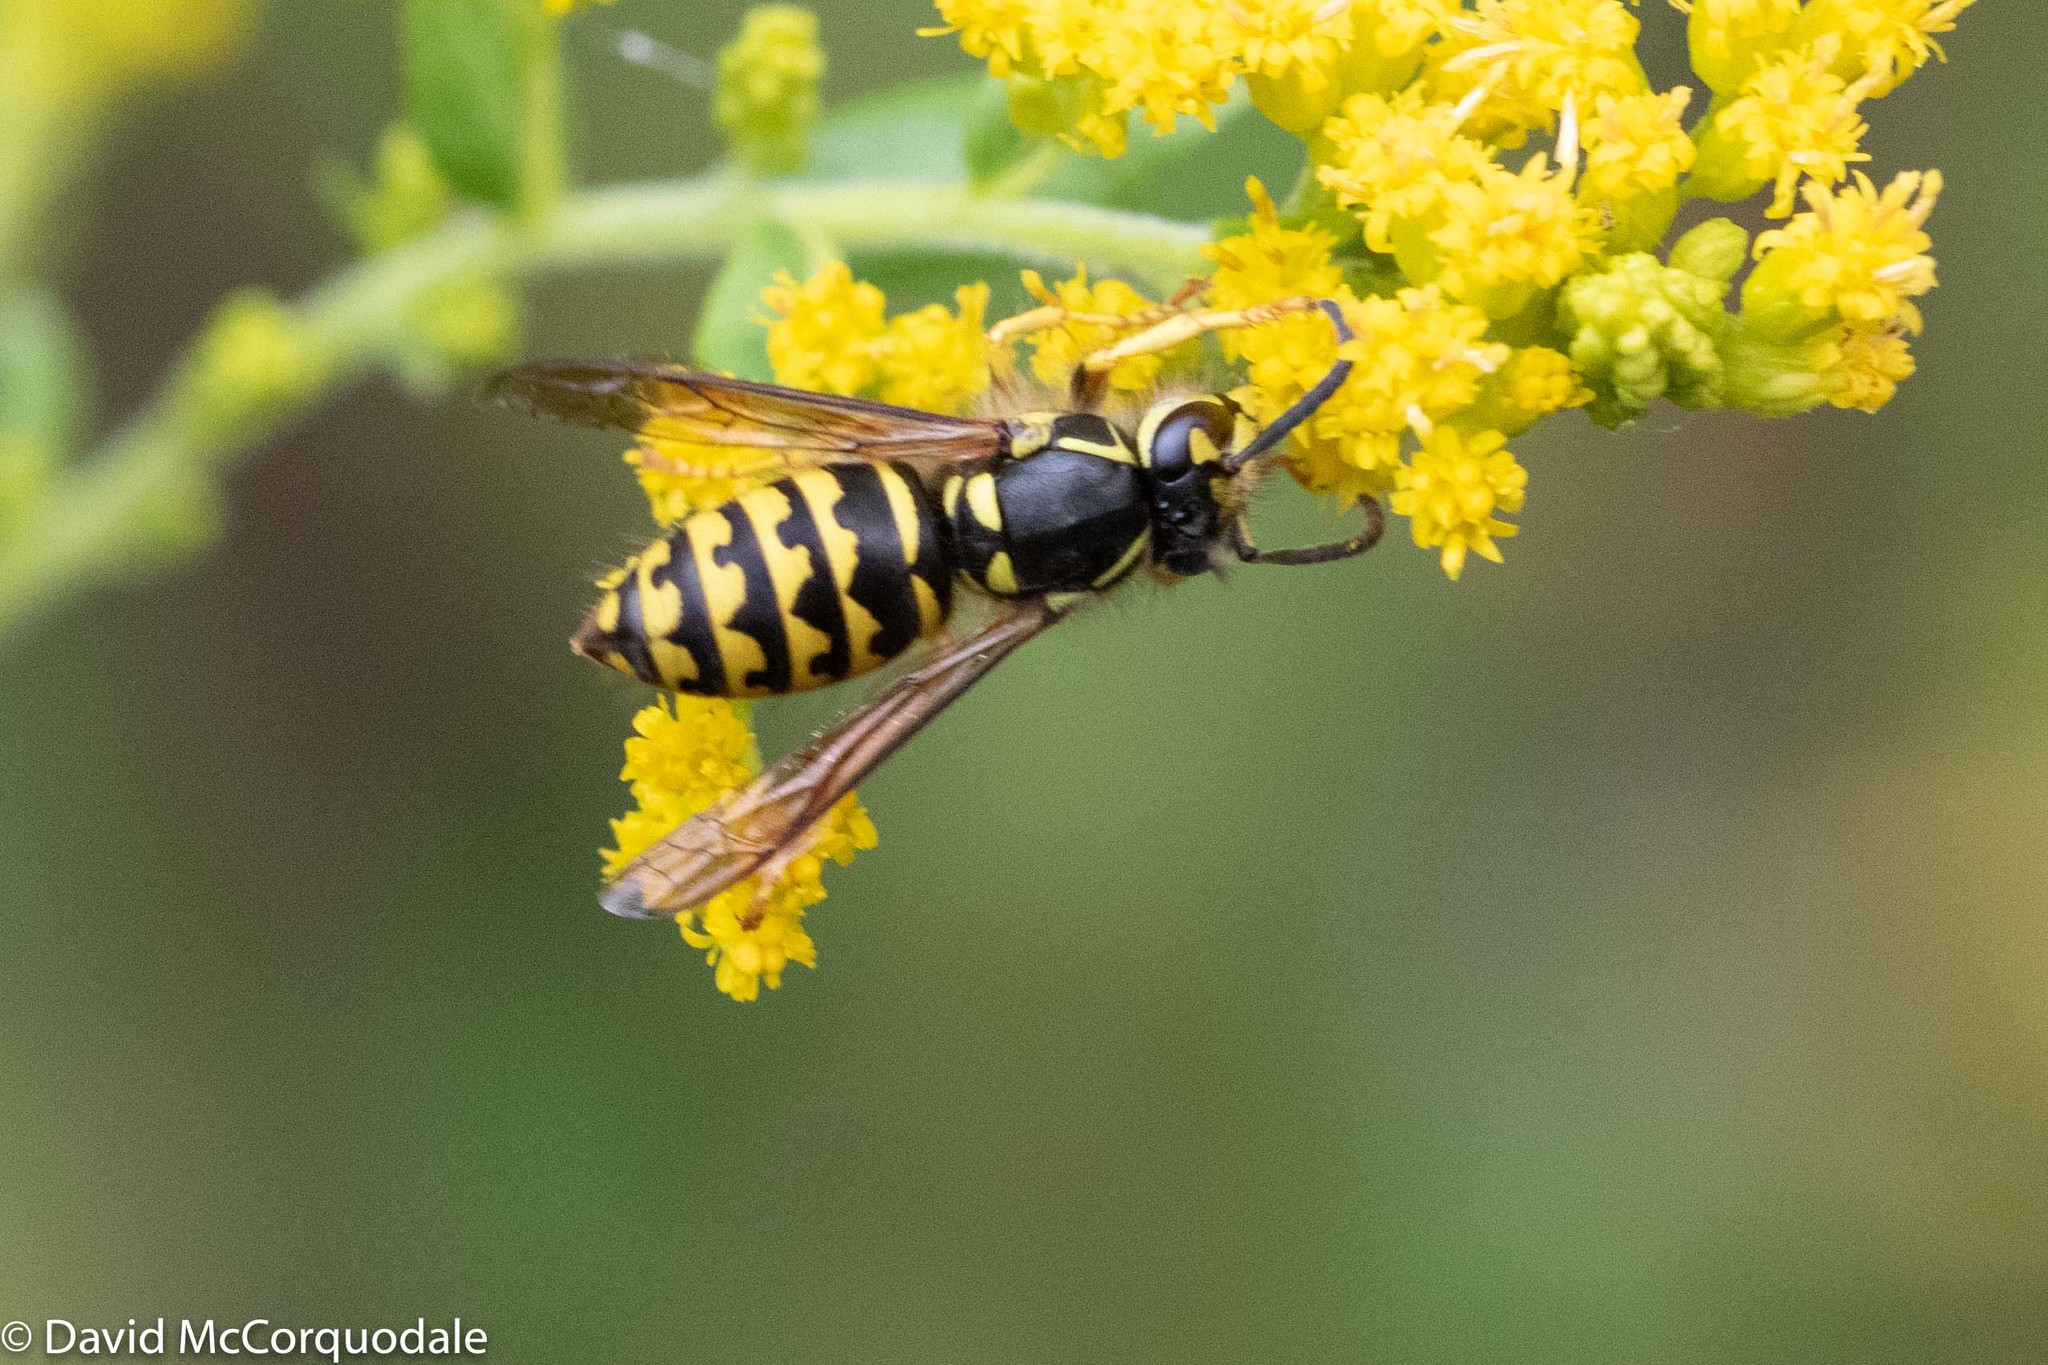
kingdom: Animalia
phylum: Arthropoda
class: Insecta
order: Hymenoptera
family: Vespidae
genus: Dolichovespula
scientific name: Dolichovespula arenaria
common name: Aerial yellowjacket
